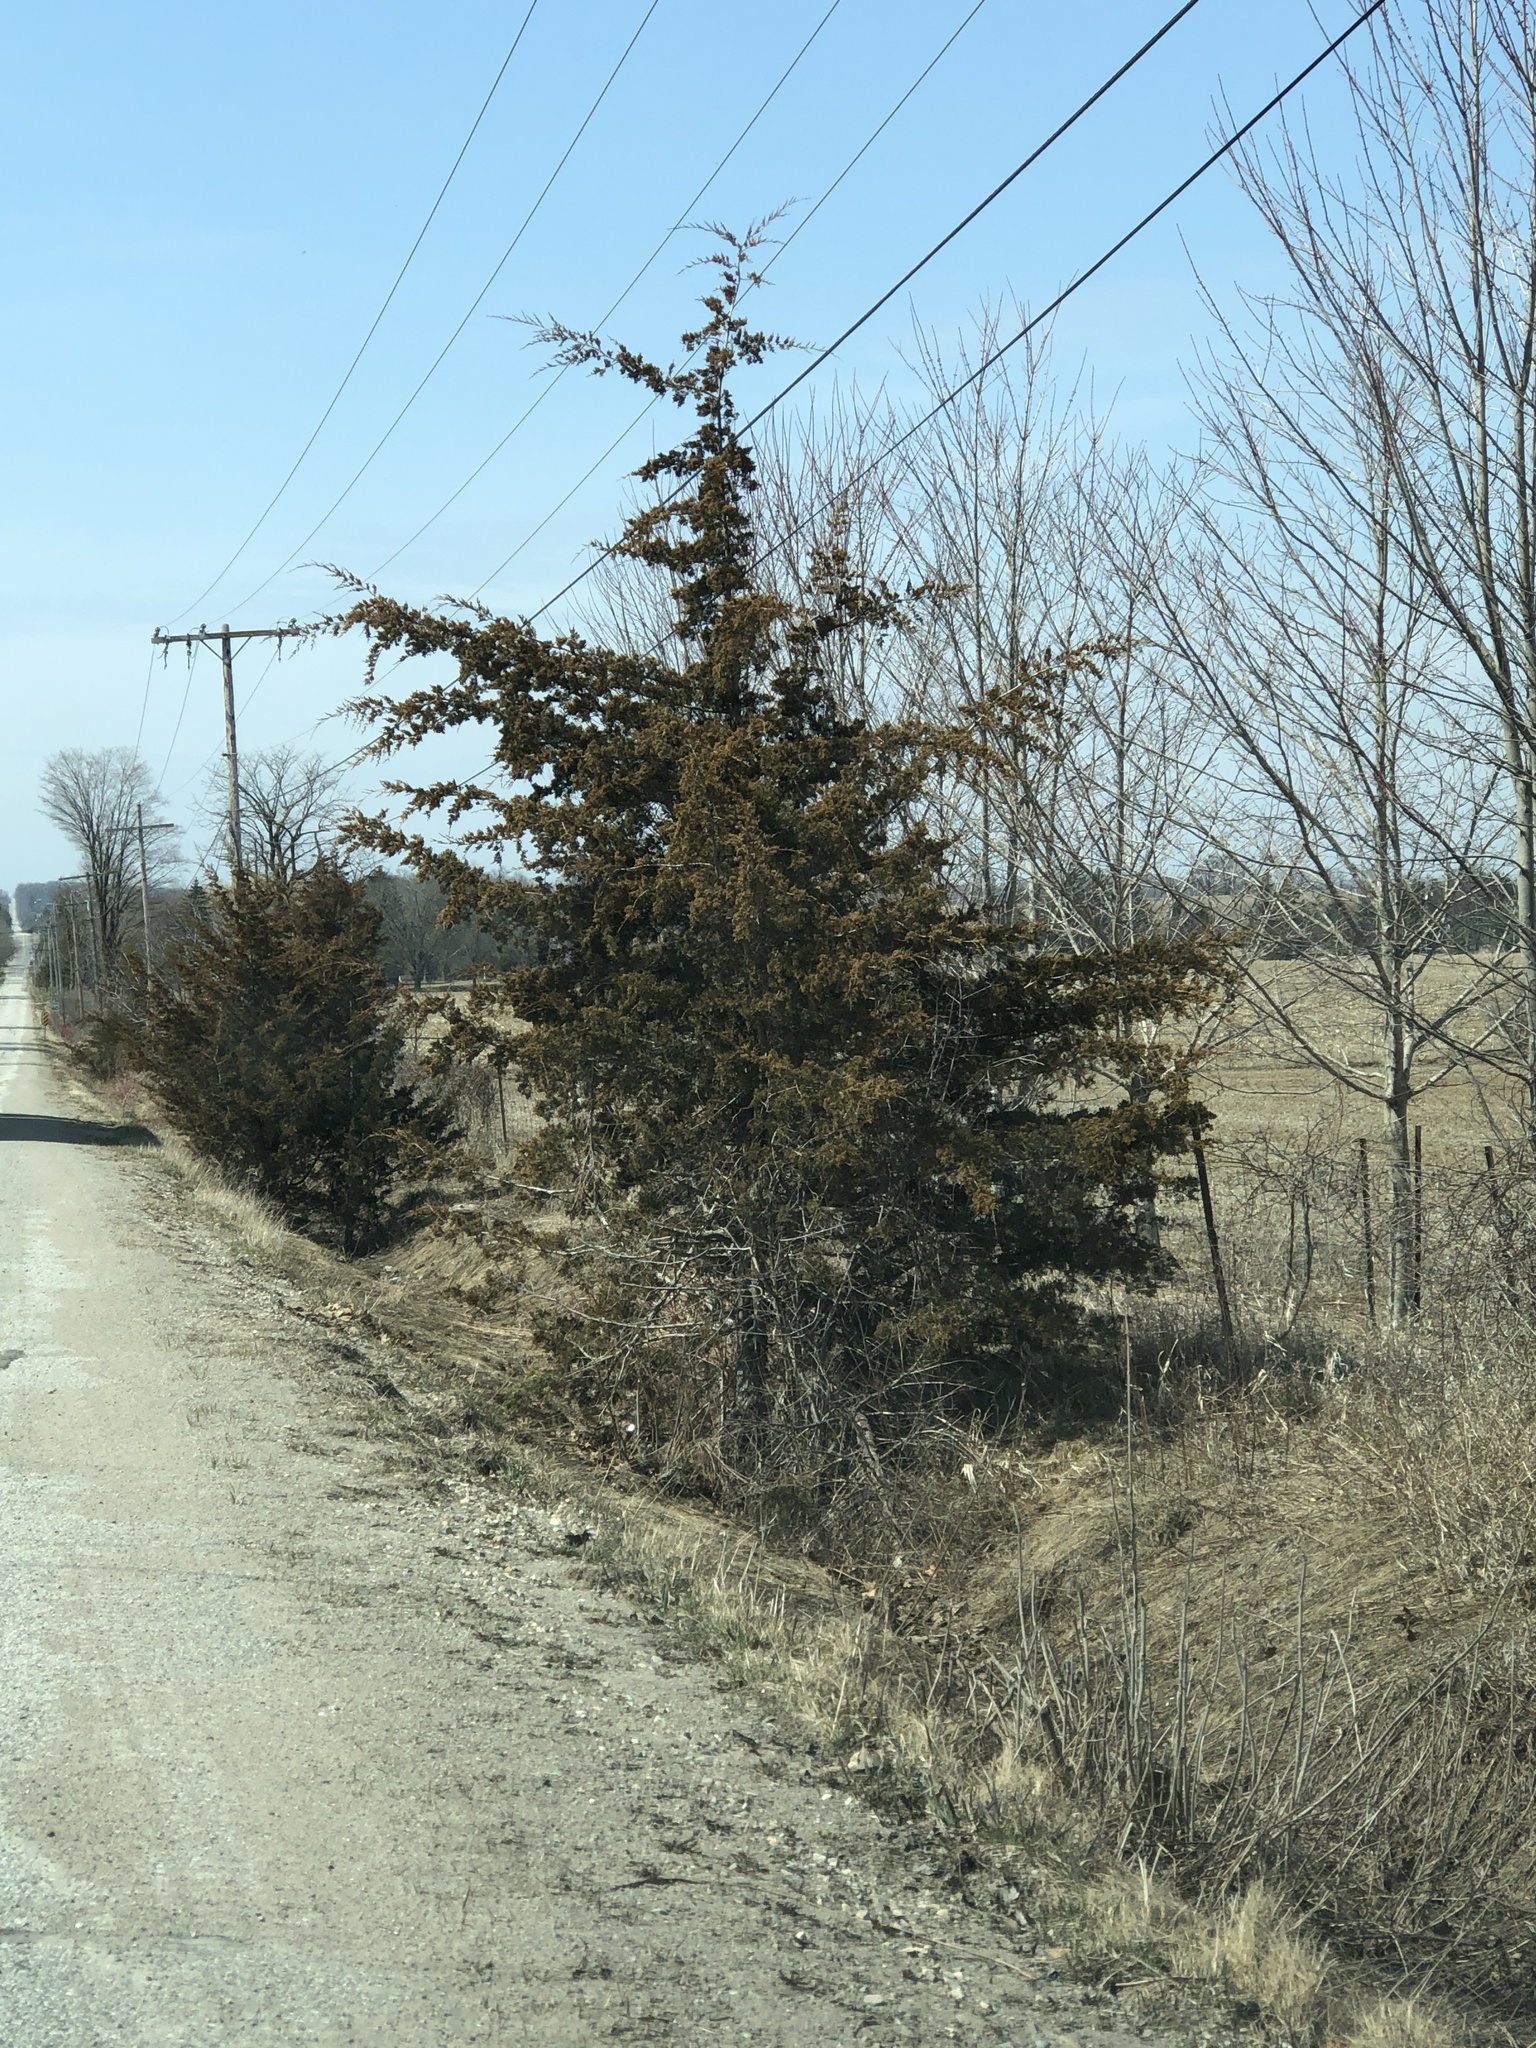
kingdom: Plantae
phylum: Tracheophyta
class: Pinopsida
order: Pinales
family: Cupressaceae
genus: Juniperus
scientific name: Juniperus virginiana
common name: Red juniper
